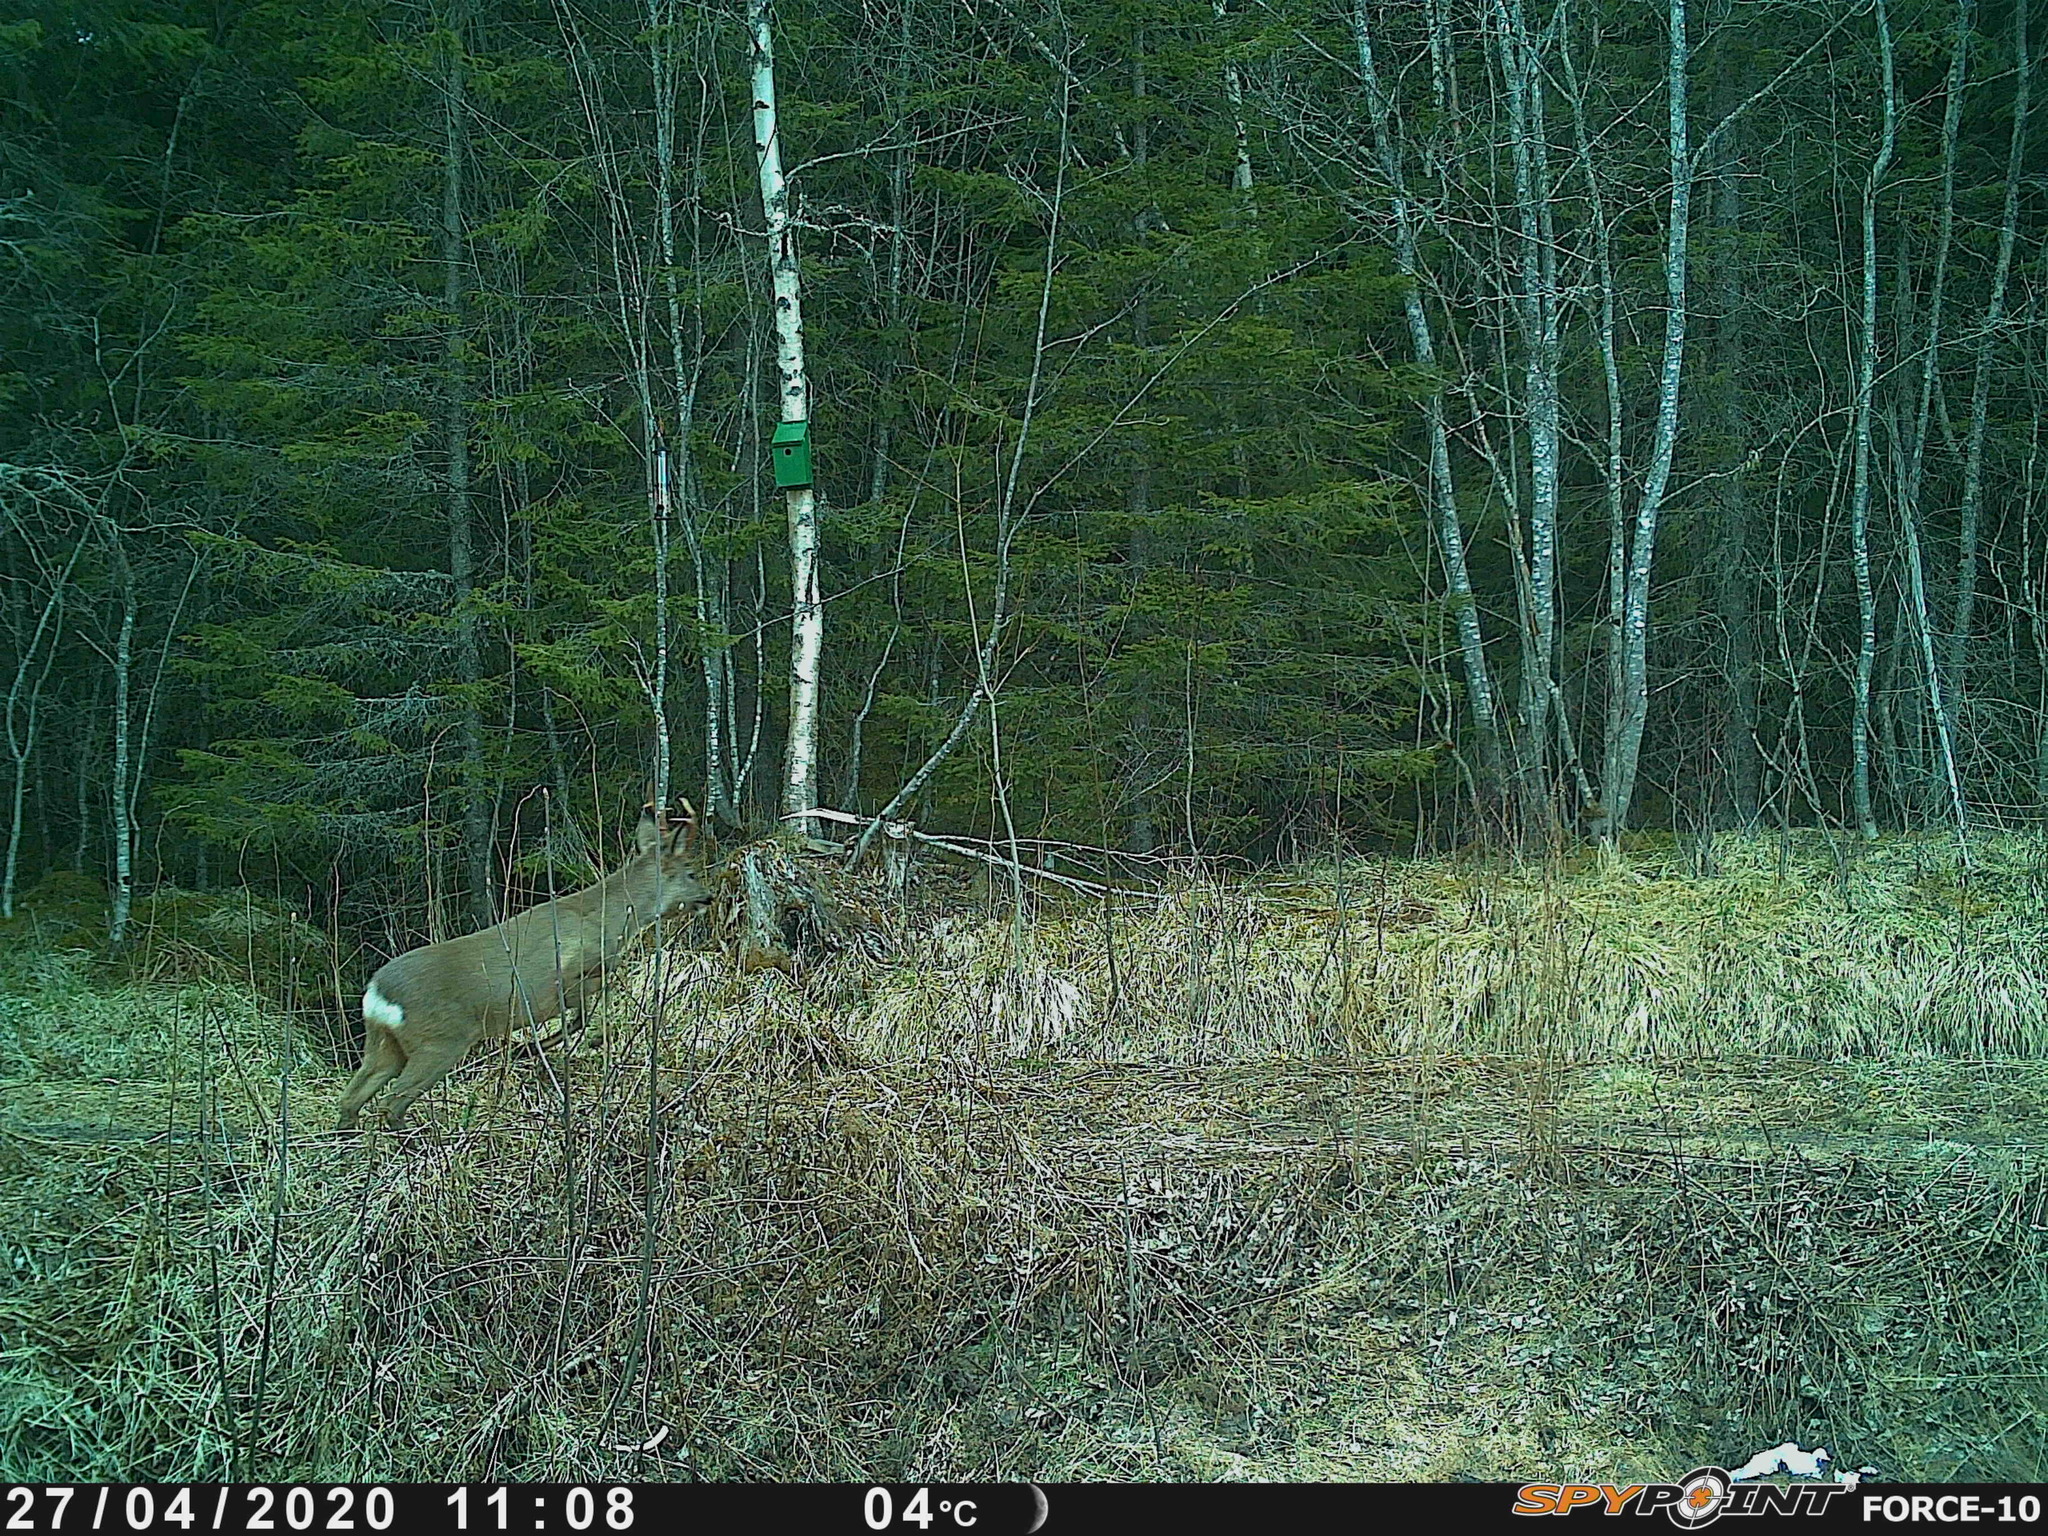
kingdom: Animalia
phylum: Chordata
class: Mammalia
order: Artiodactyla
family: Cervidae
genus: Capreolus
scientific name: Capreolus capreolus
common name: Western roe deer
